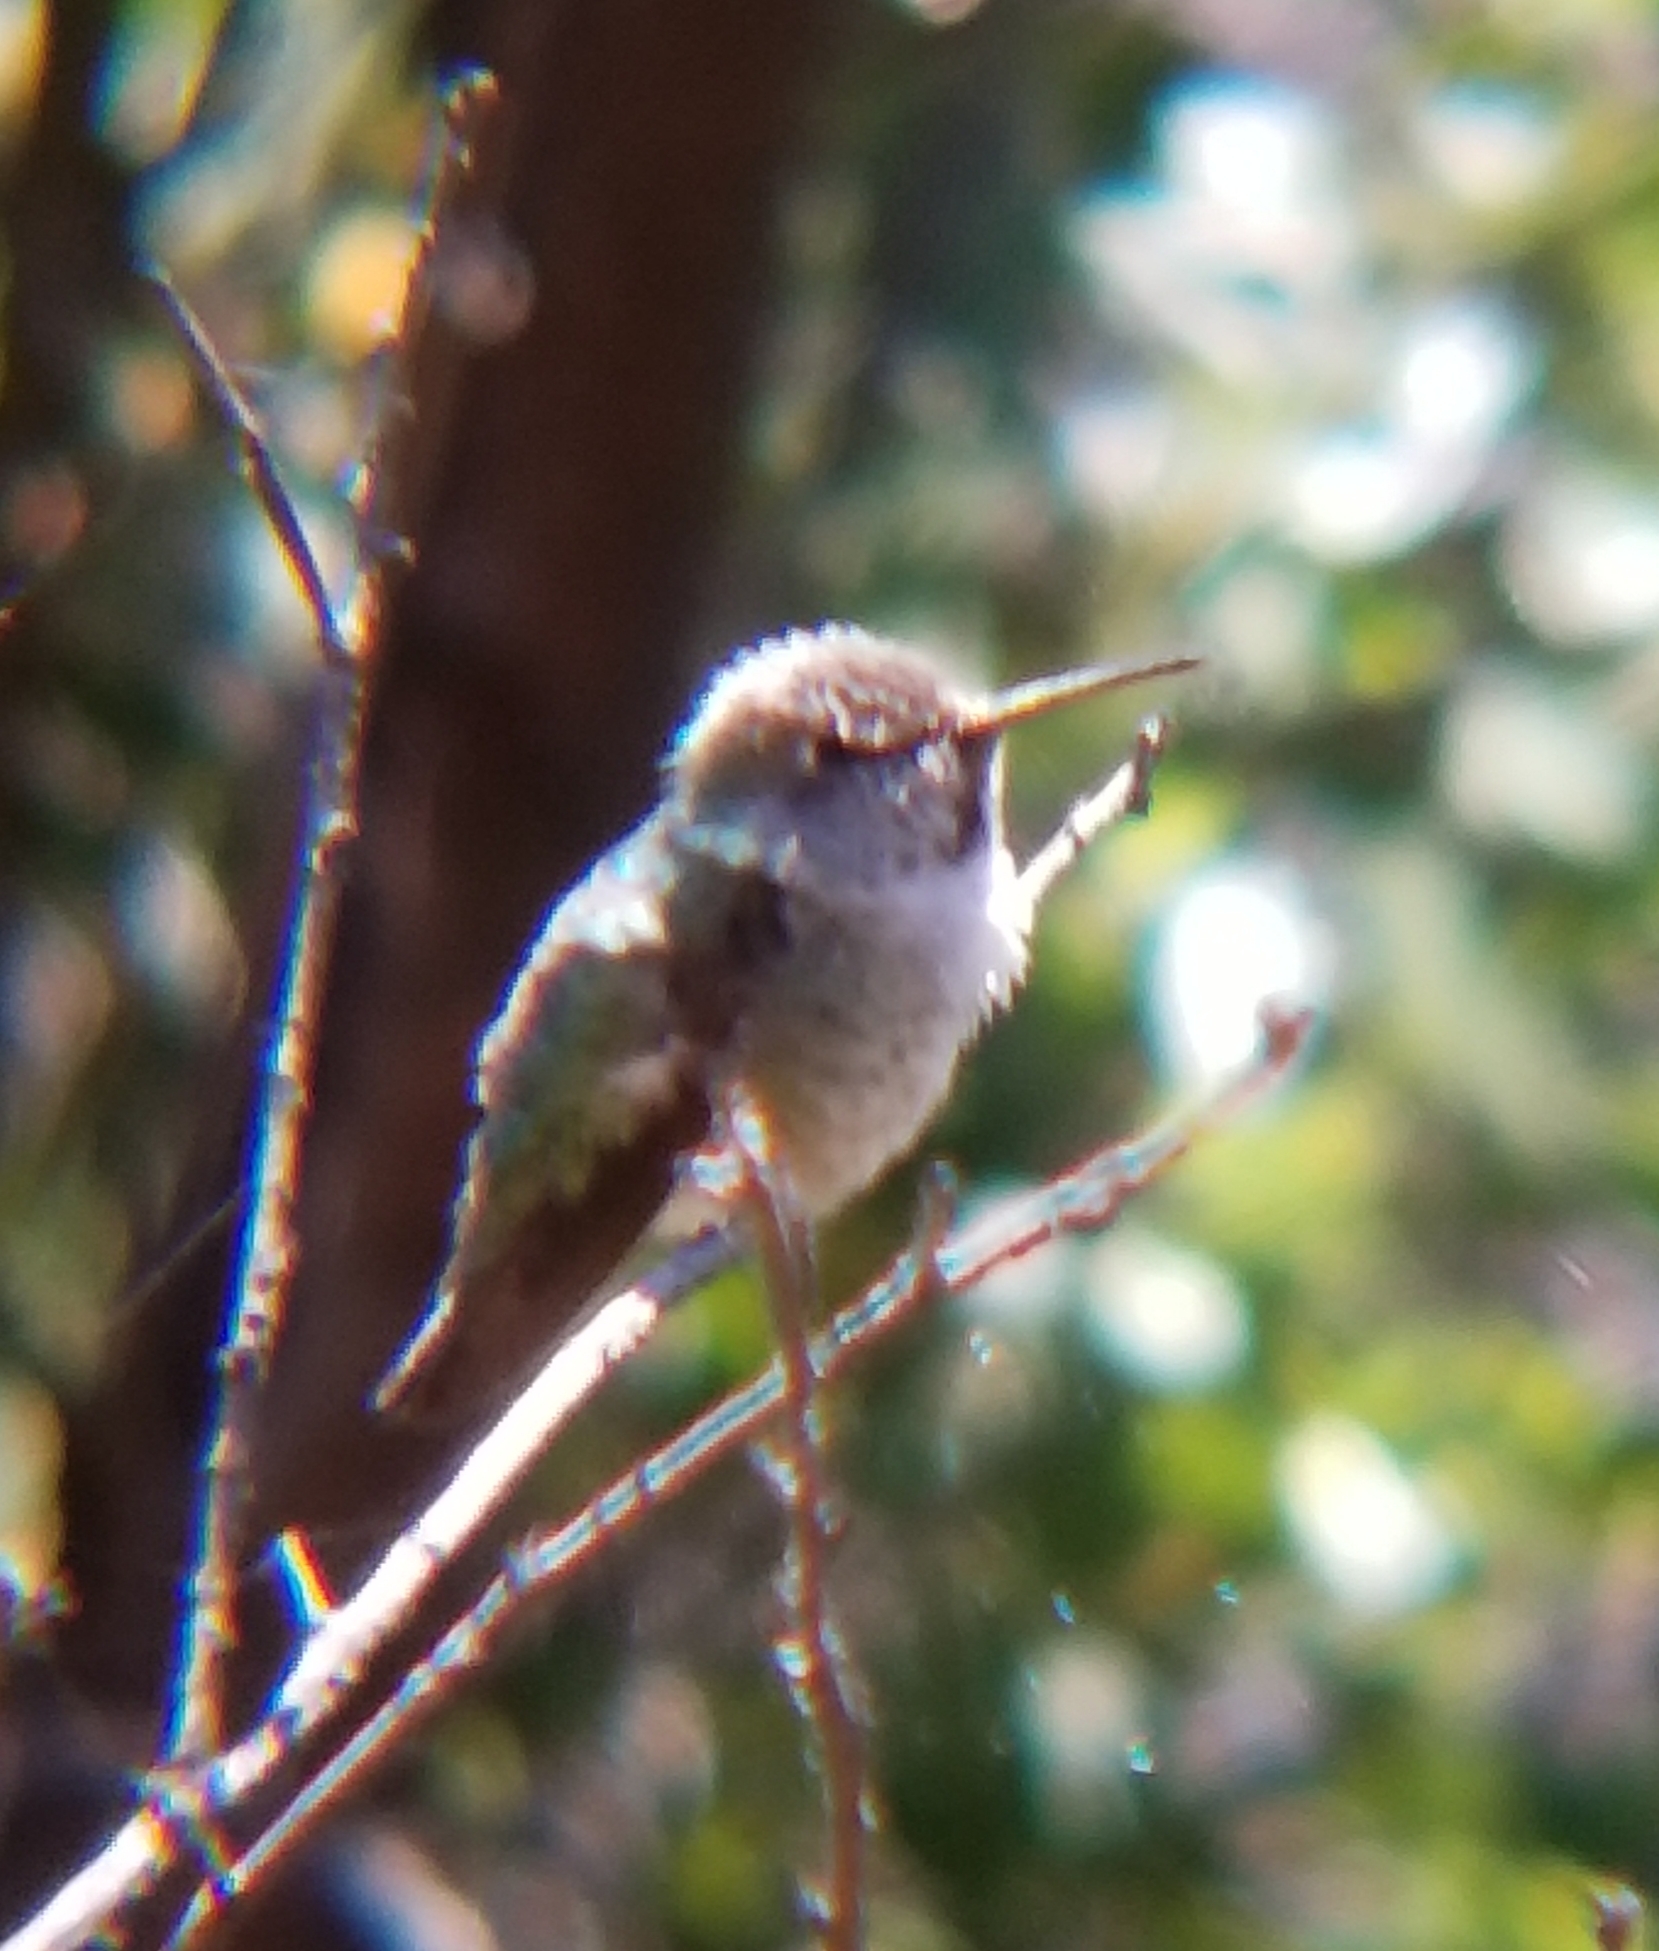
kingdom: Animalia
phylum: Chordata
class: Aves
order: Apodiformes
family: Trochilidae
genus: Calypte
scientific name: Calypte anna
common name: Anna's hummingbird
